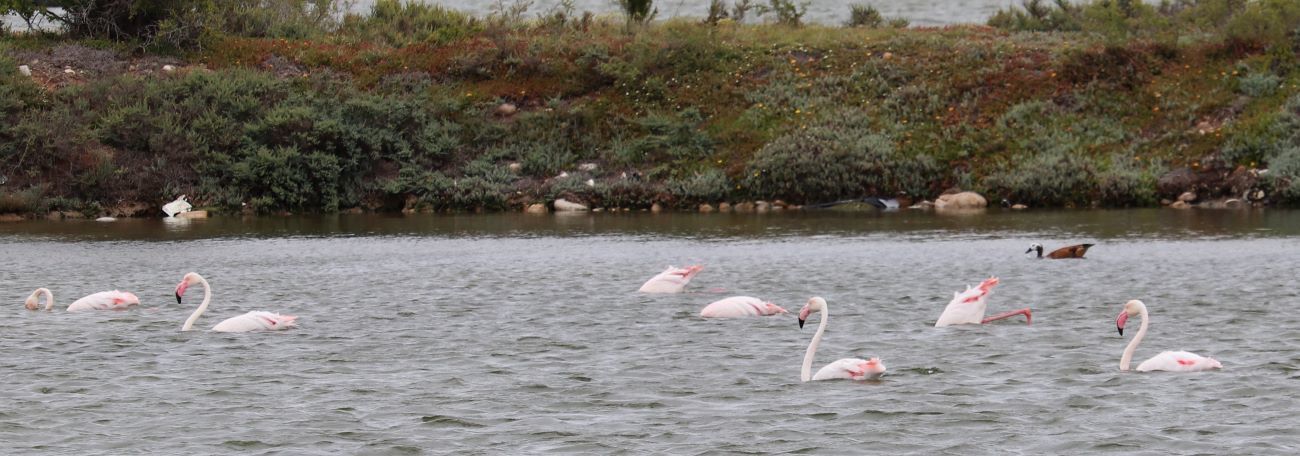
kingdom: Animalia
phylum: Chordata
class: Aves
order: Phoenicopteriformes
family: Phoenicopteridae
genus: Phoenicopterus
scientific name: Phoenicopterus roseus
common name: Greater flamingo
